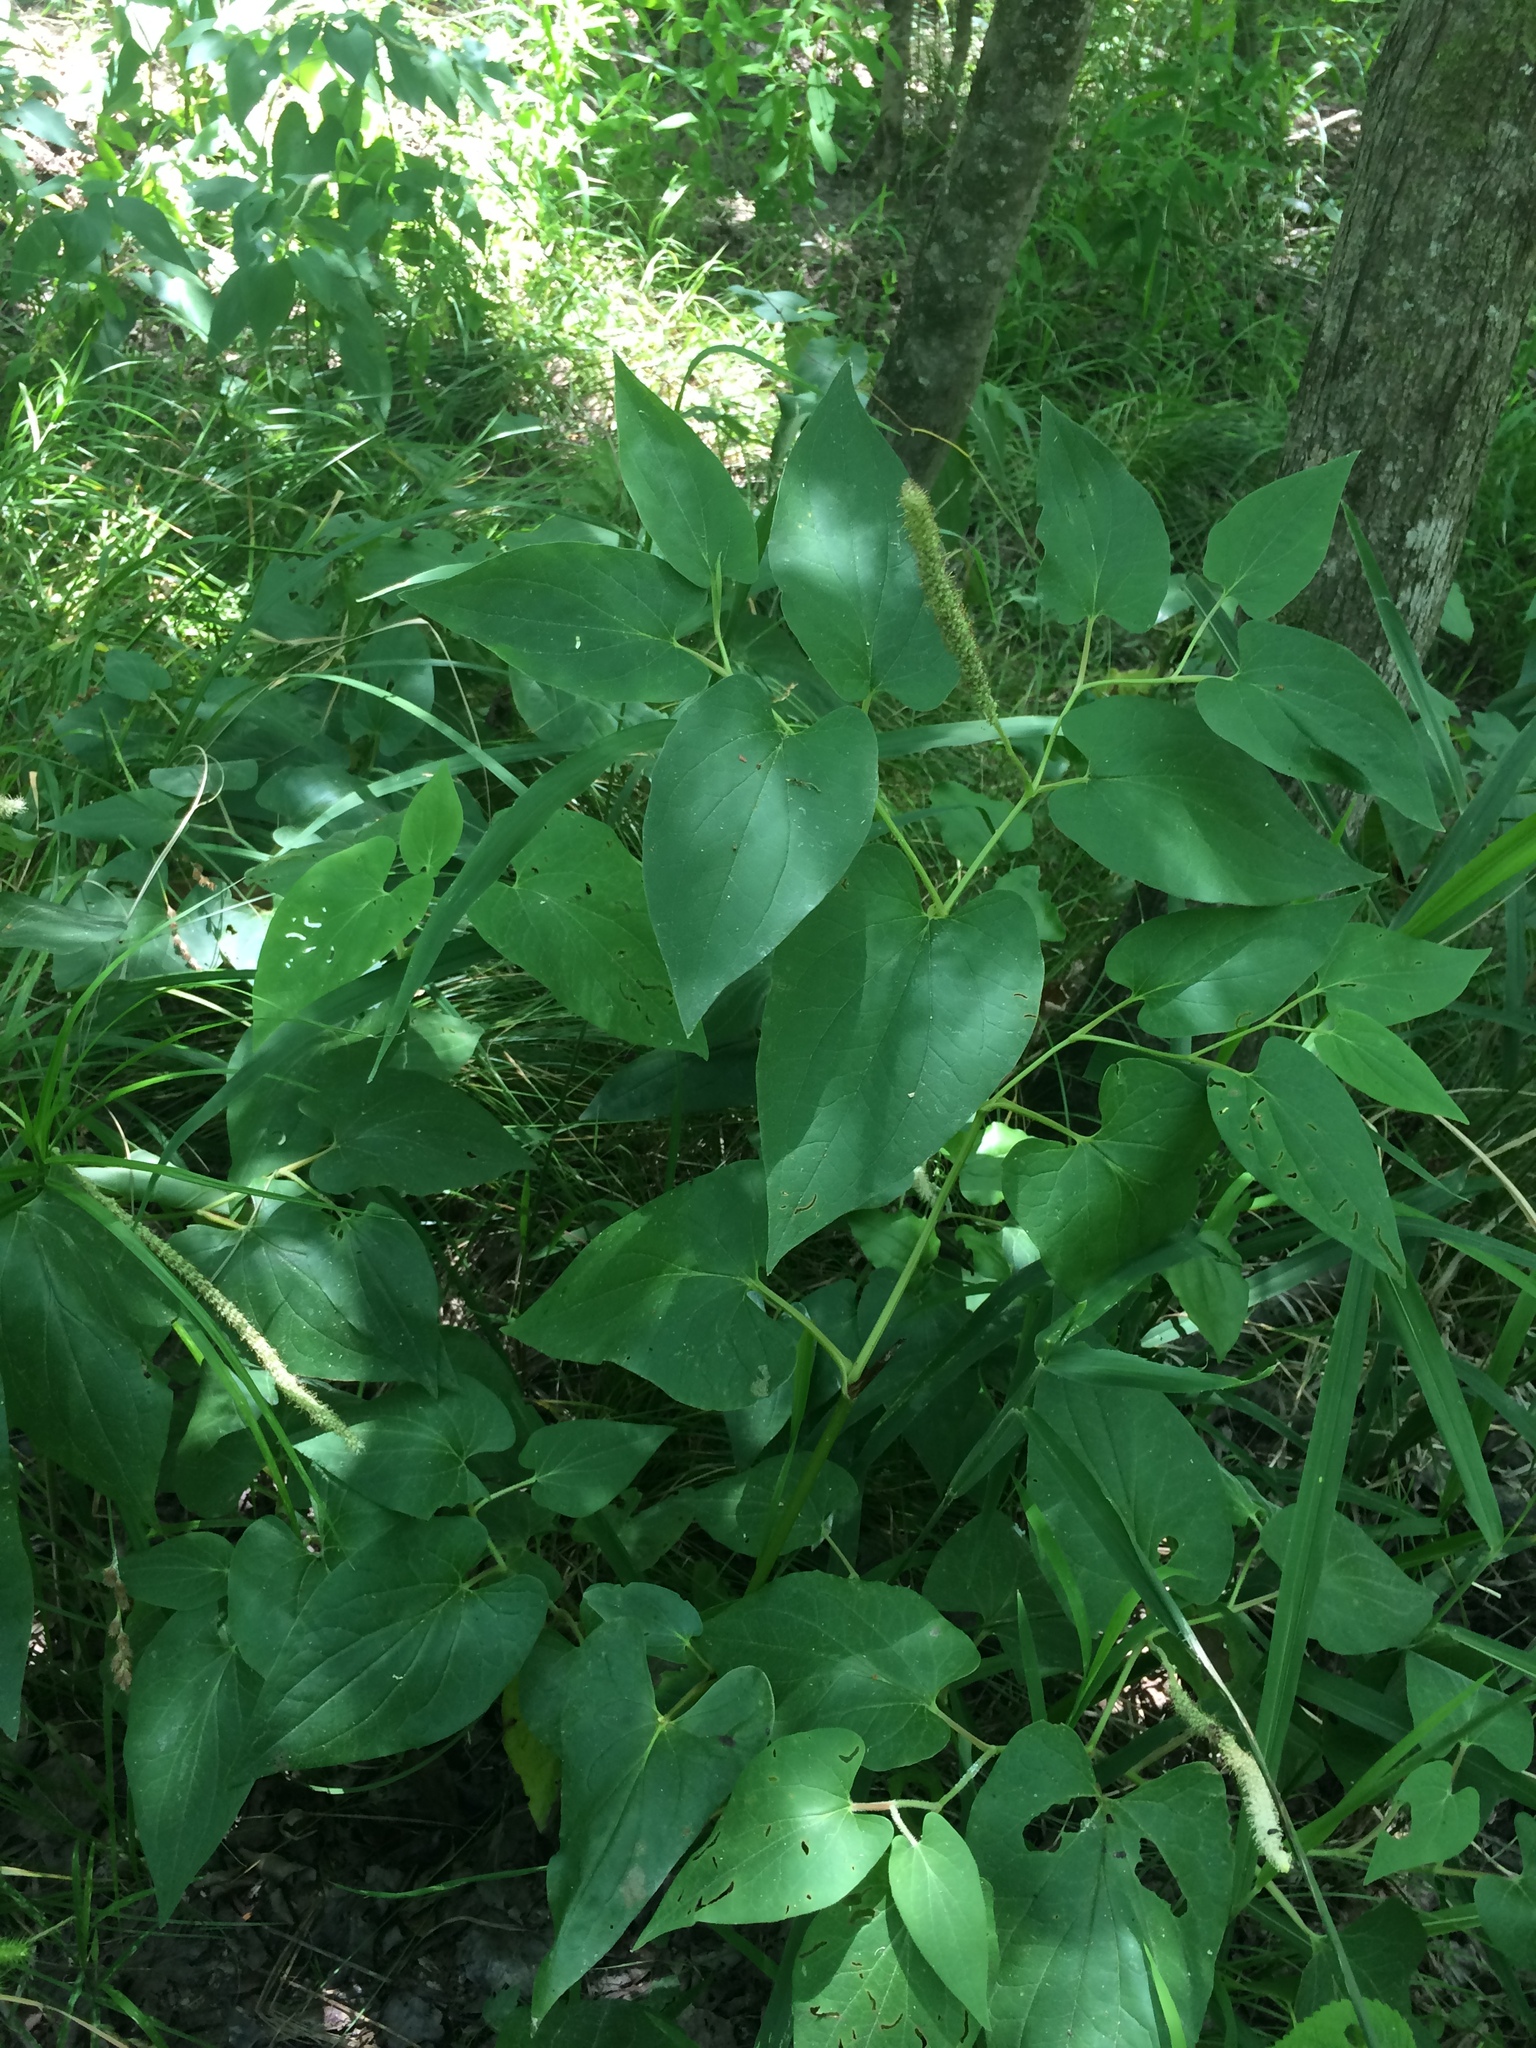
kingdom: Plantae
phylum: Tracheophyta
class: Magnoliopsida
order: Piperales
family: Saururaceae
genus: Saururus
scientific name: Saururus cernuus
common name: Lizard's-tail
